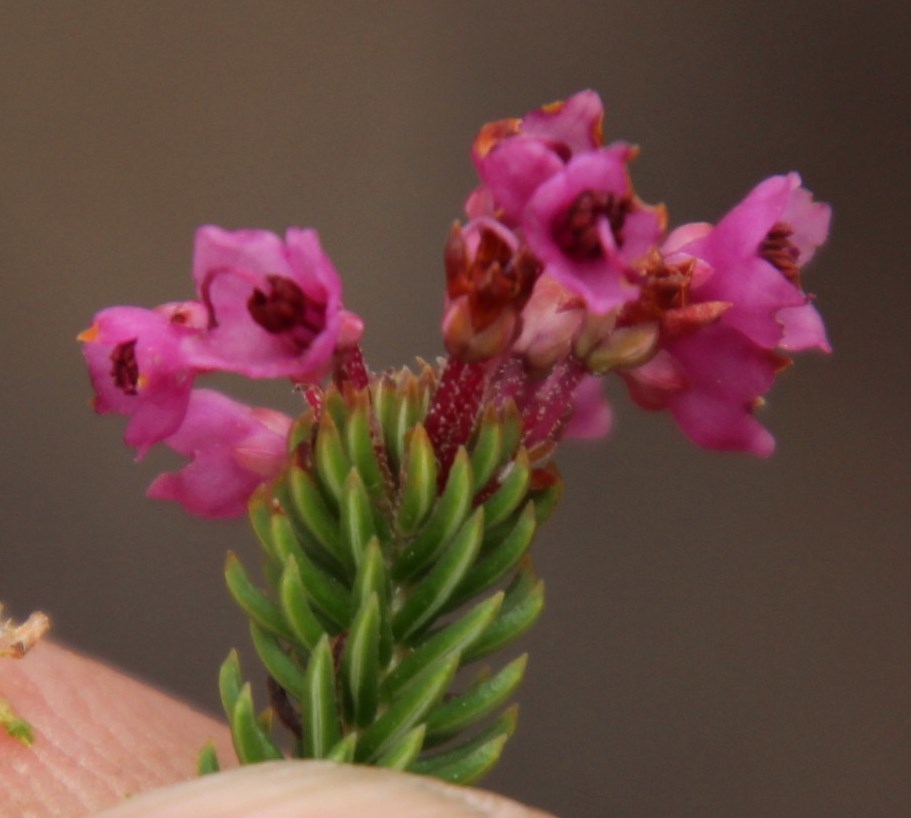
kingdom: Plantae
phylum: Tracheophyta
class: Magnoliopsida
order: Ericales
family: Ericaceae
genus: Erica
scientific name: Erica seriphiifolia
